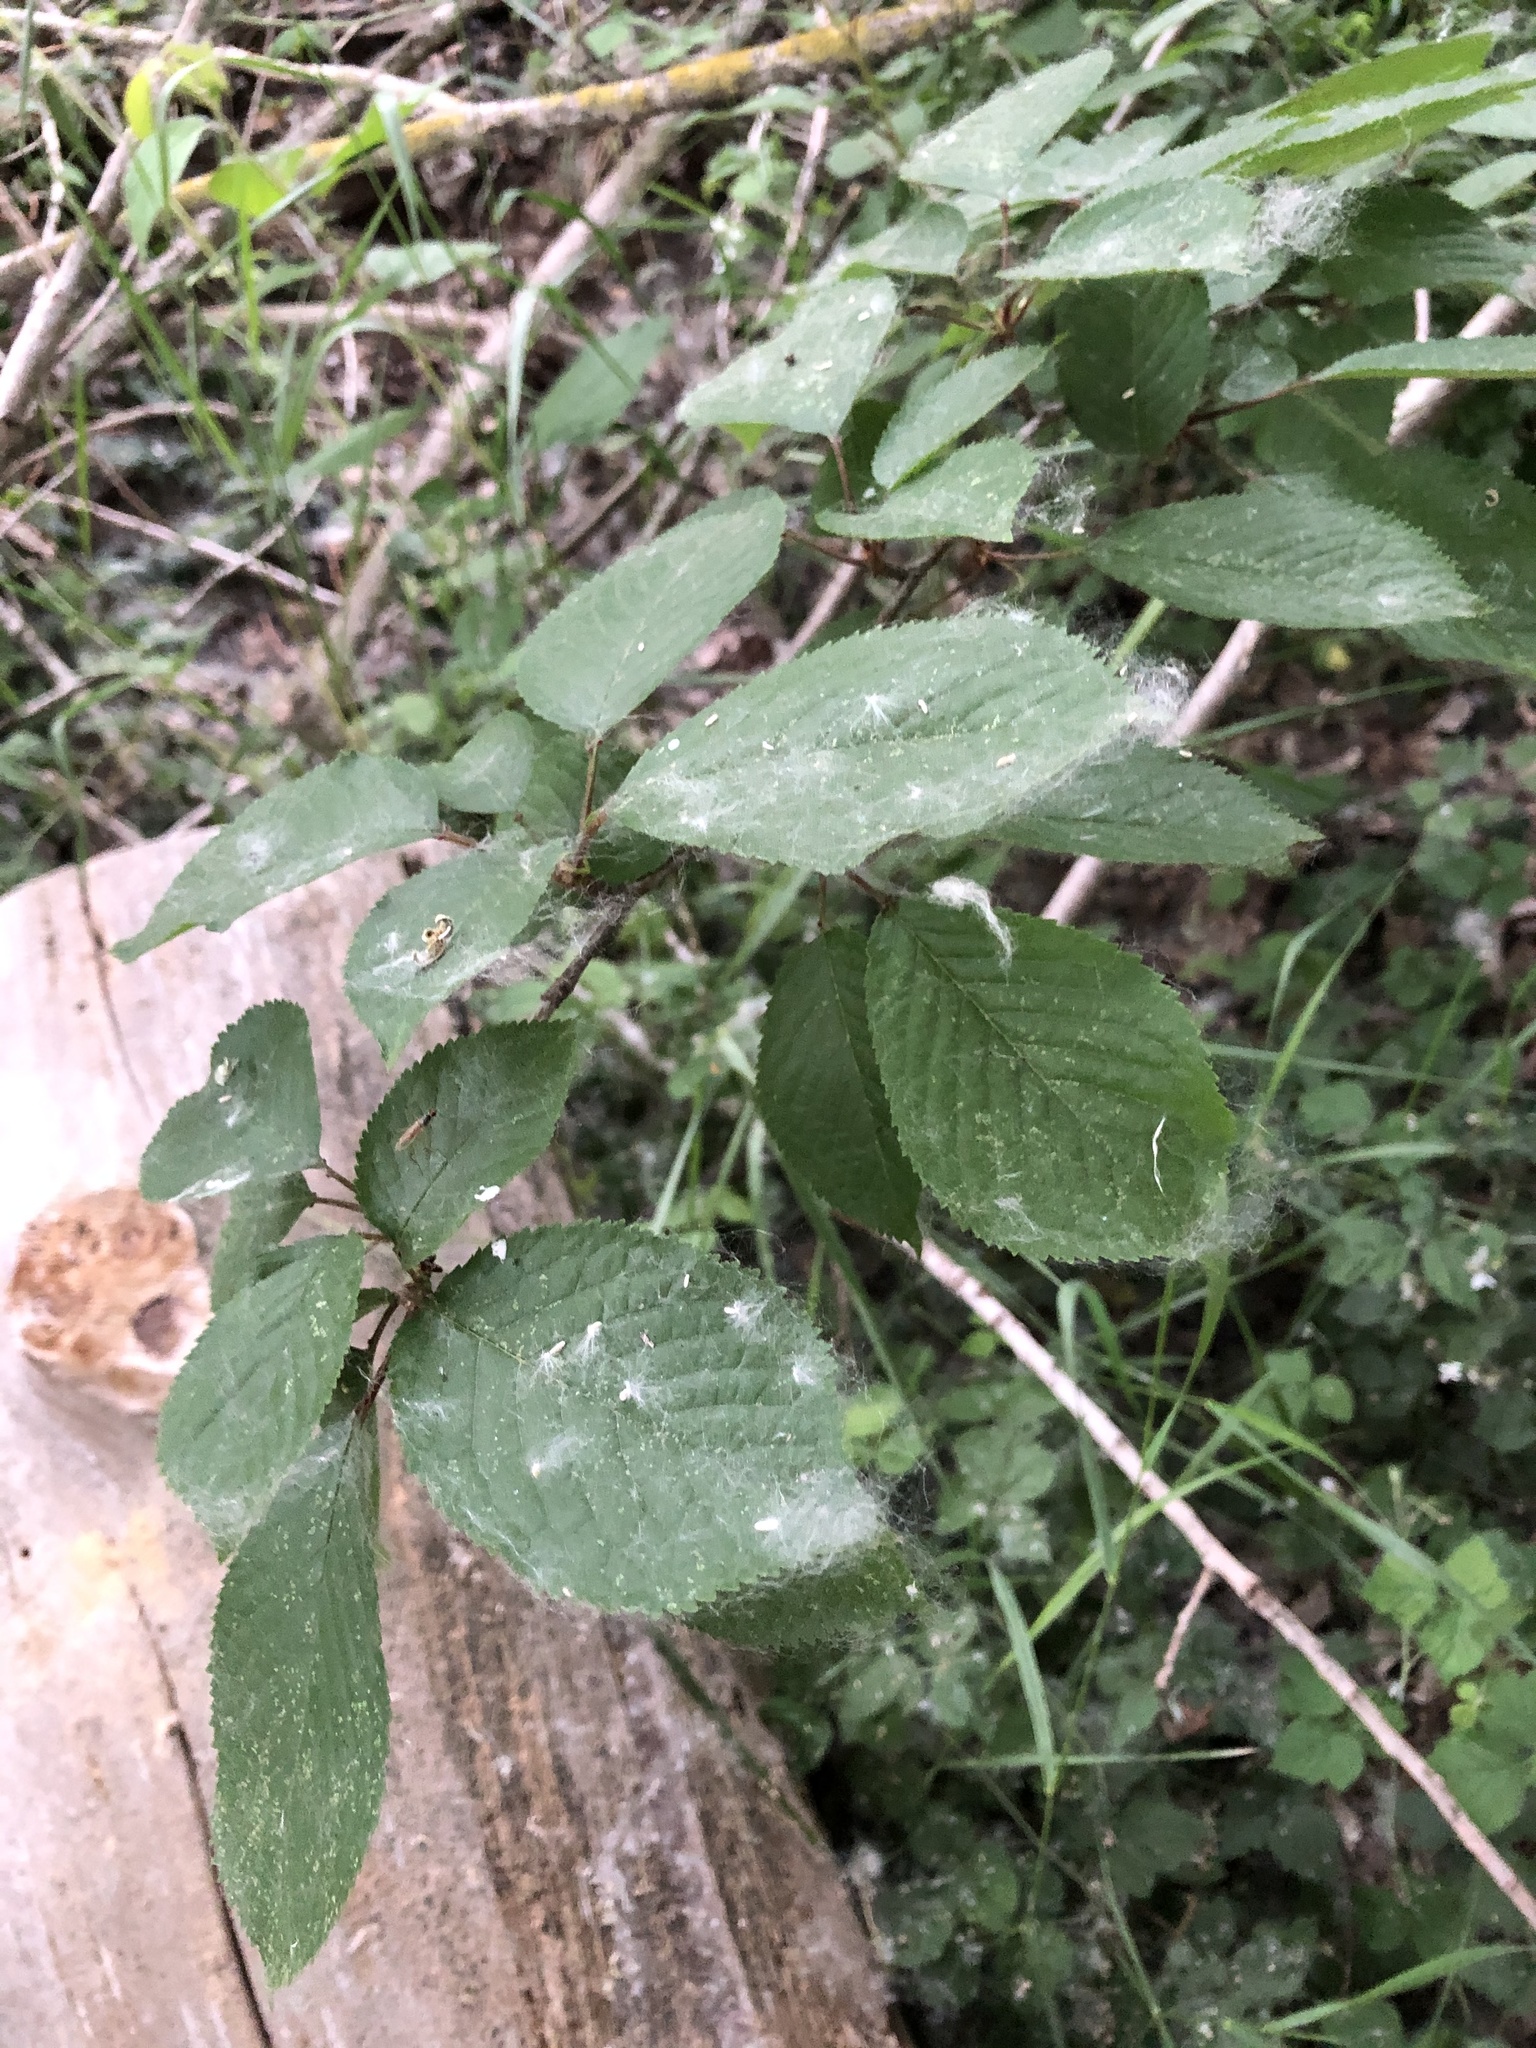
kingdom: Plantae
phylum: Tracheophyta
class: Magnoliopsida
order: Rosales
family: Rosaceae
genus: Prunus
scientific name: Prunus avium
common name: Sweet cherry
